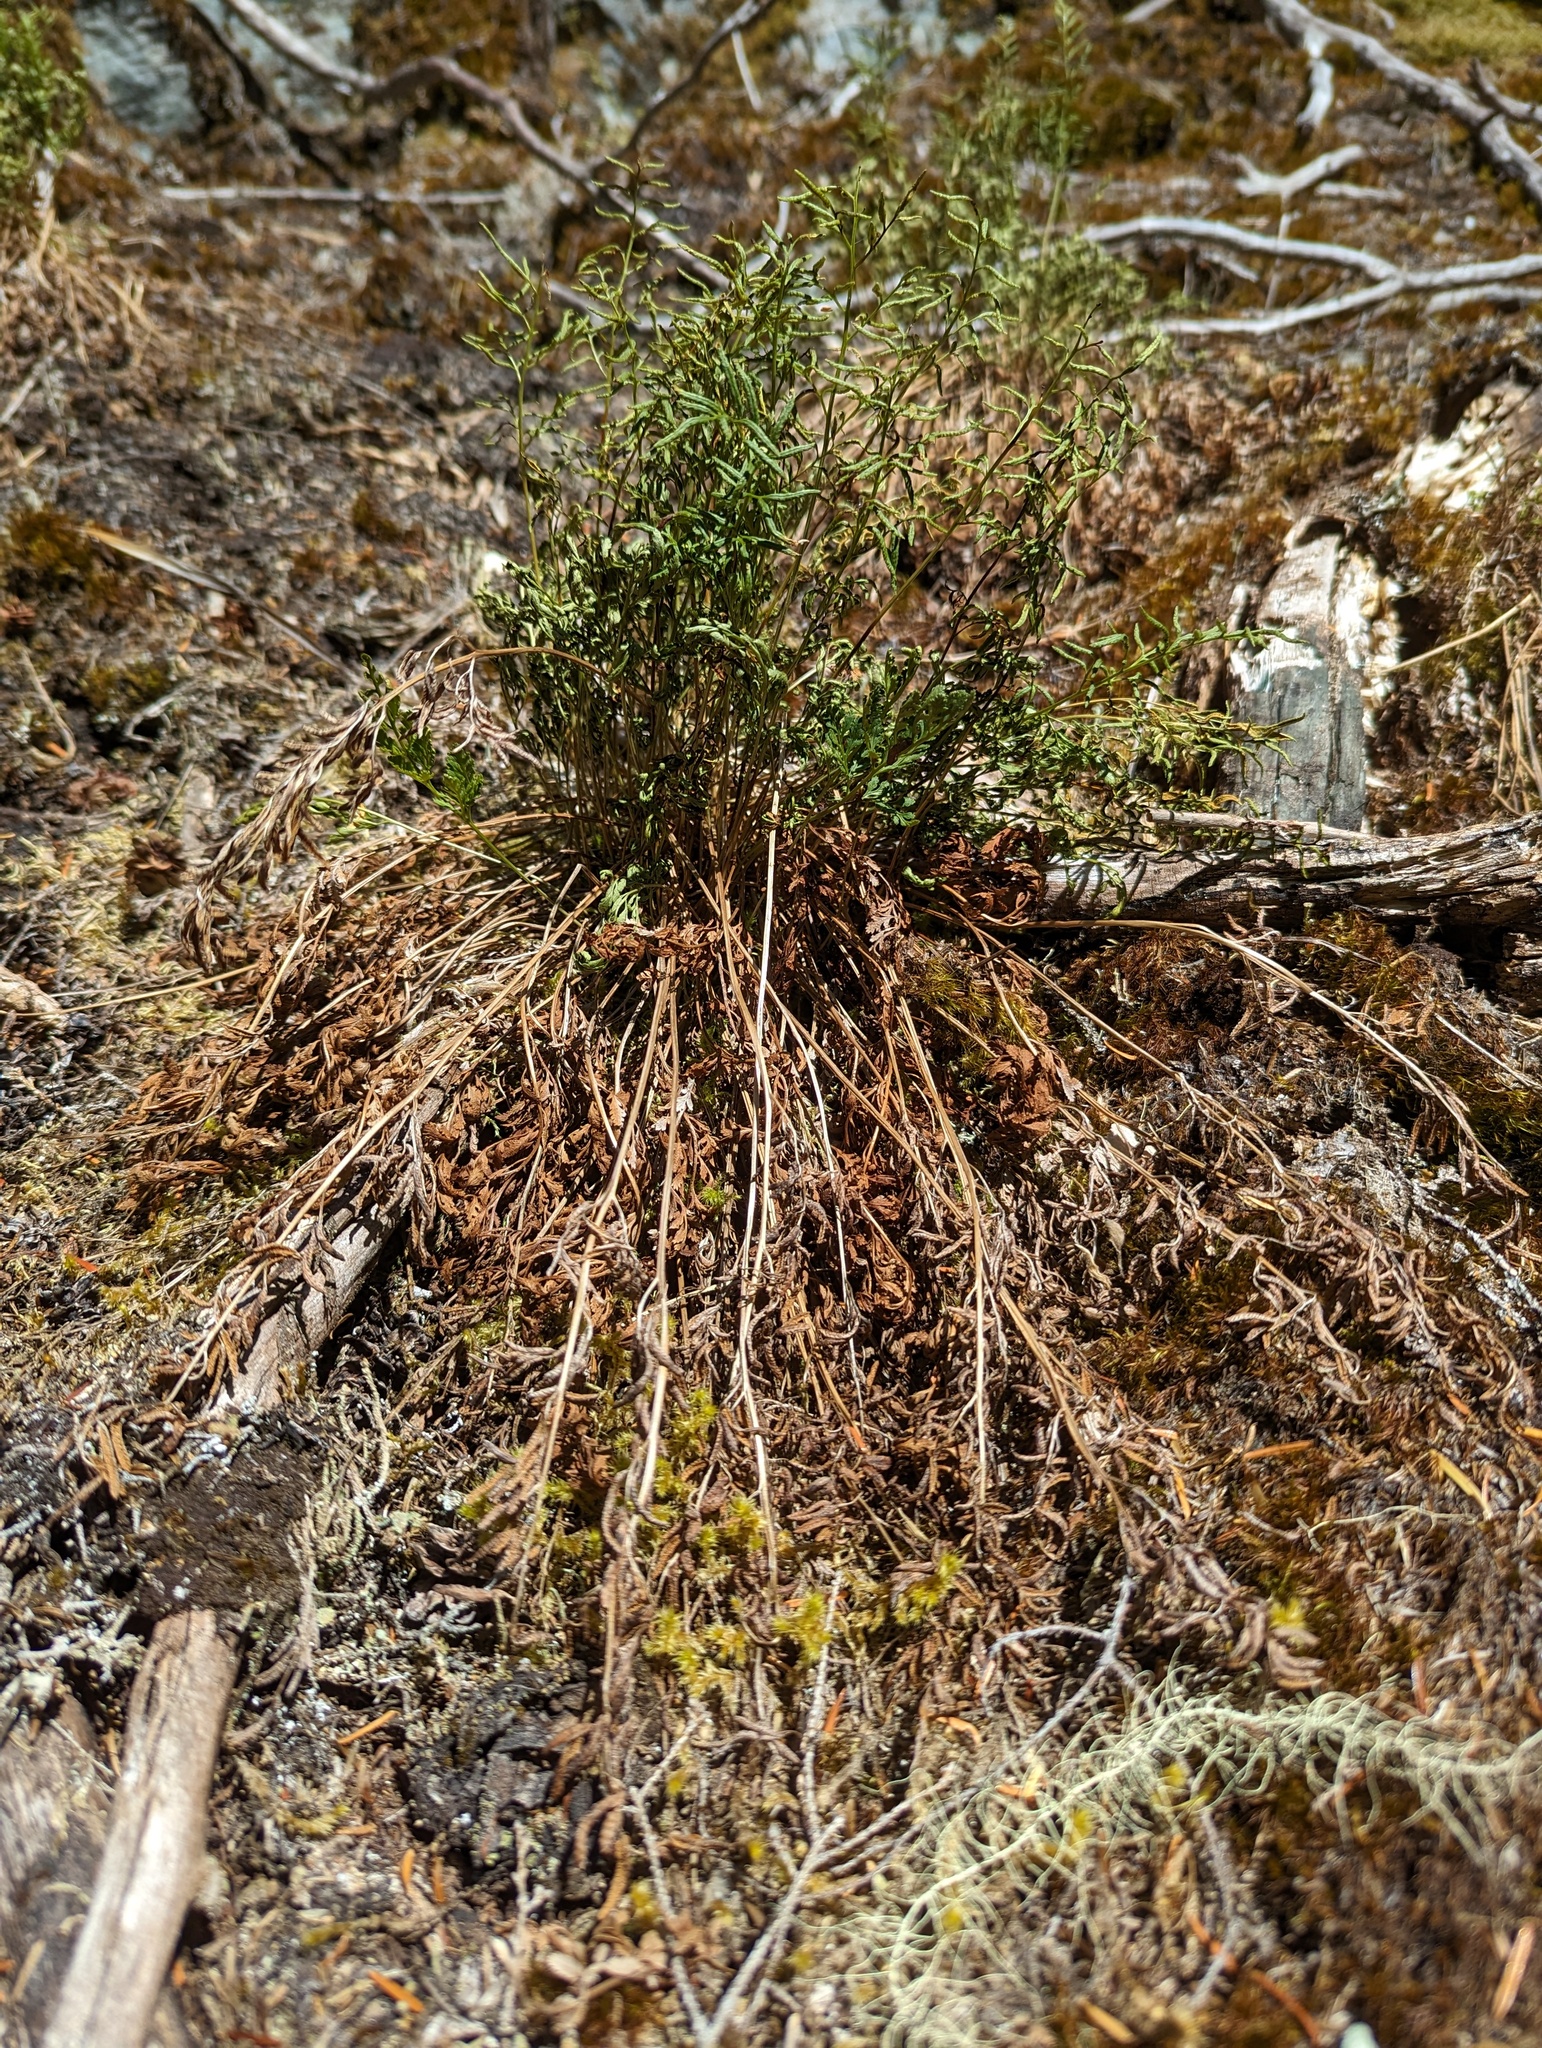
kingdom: Plantae
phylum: Tracheophyta
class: Polypodiopsida
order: Polypodiales
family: Pteridaceae
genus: Cryptogramma
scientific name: Cryptogramma acrostichoides
